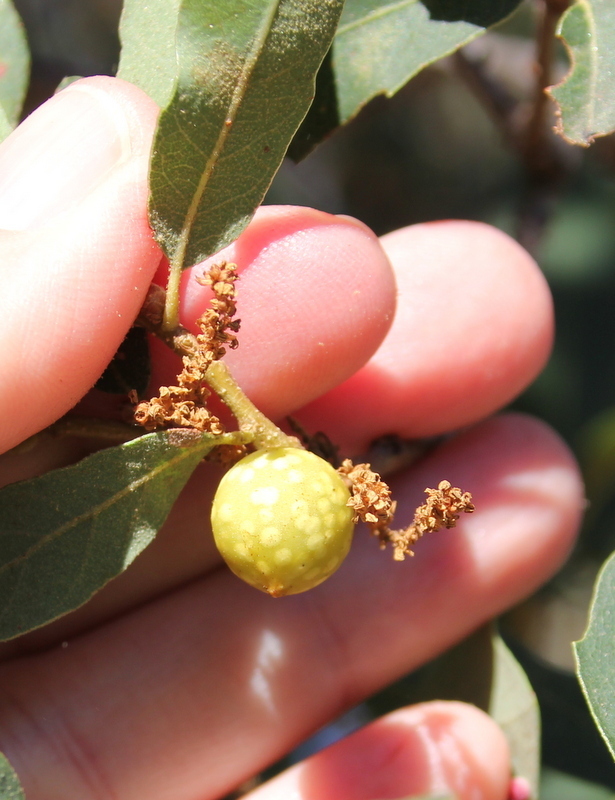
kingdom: Animalia
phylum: Arthropoda
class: Insecta
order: Hymenoptera
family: Cynipidae
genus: Burnettweldia
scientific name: Burnettweldia
